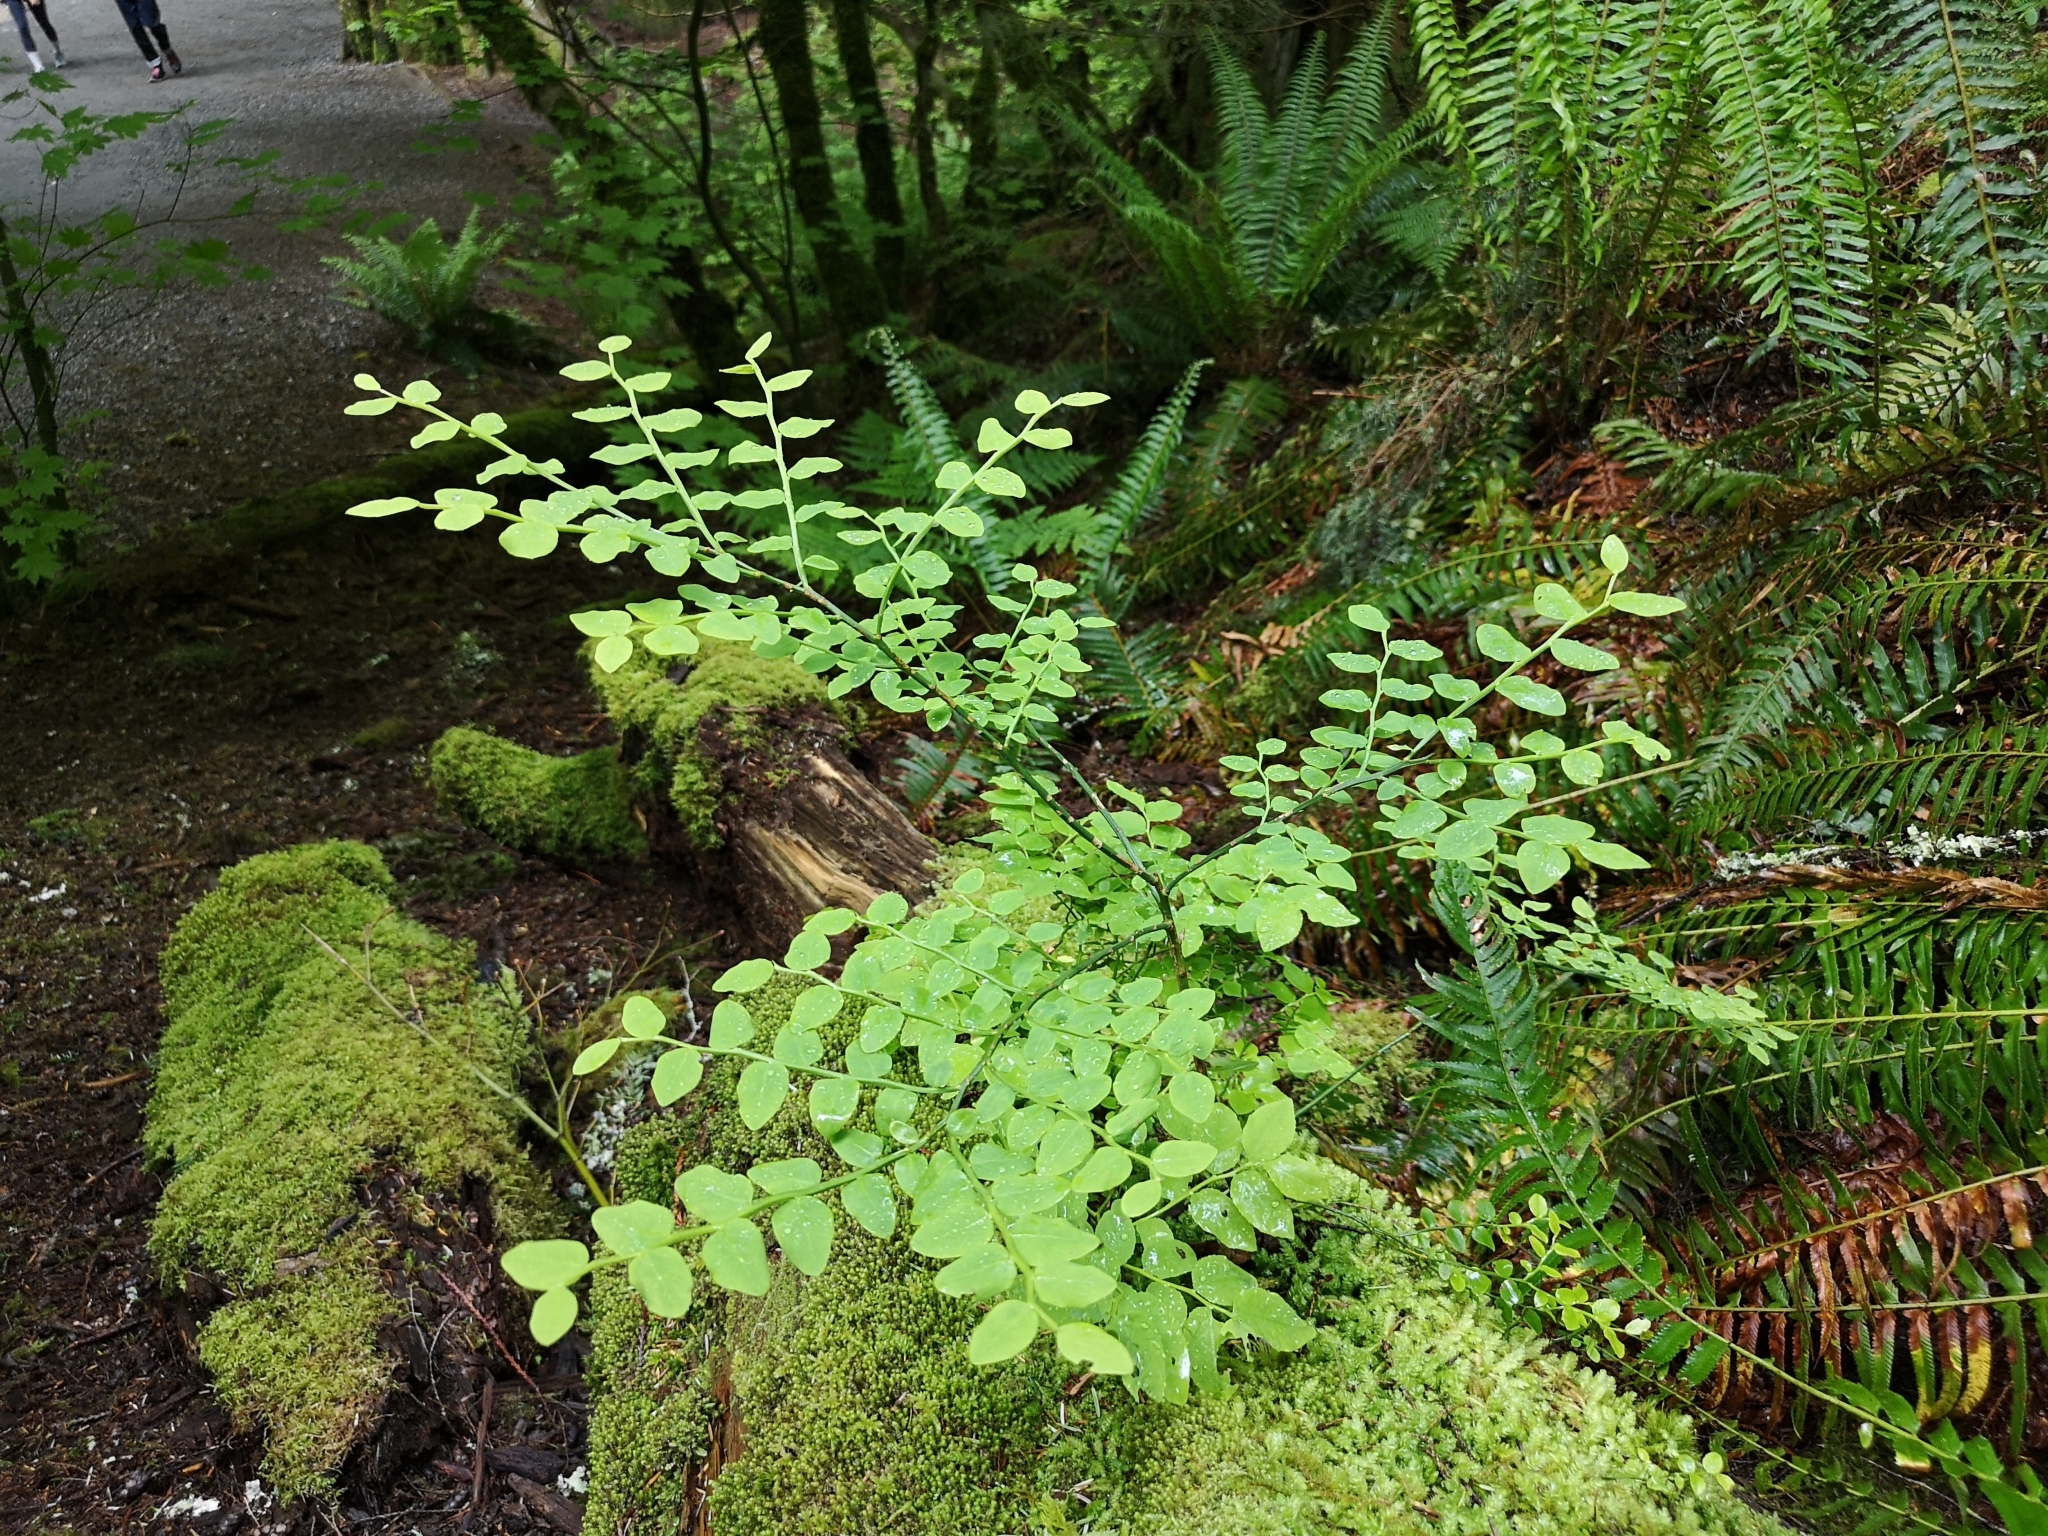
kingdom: Plantae
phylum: Tracheophyta
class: Magnoliopsida
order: Ericales
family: Ericaceae
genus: Vaccinium
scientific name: Vaccinium parvifolium
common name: Red-huckleberry
